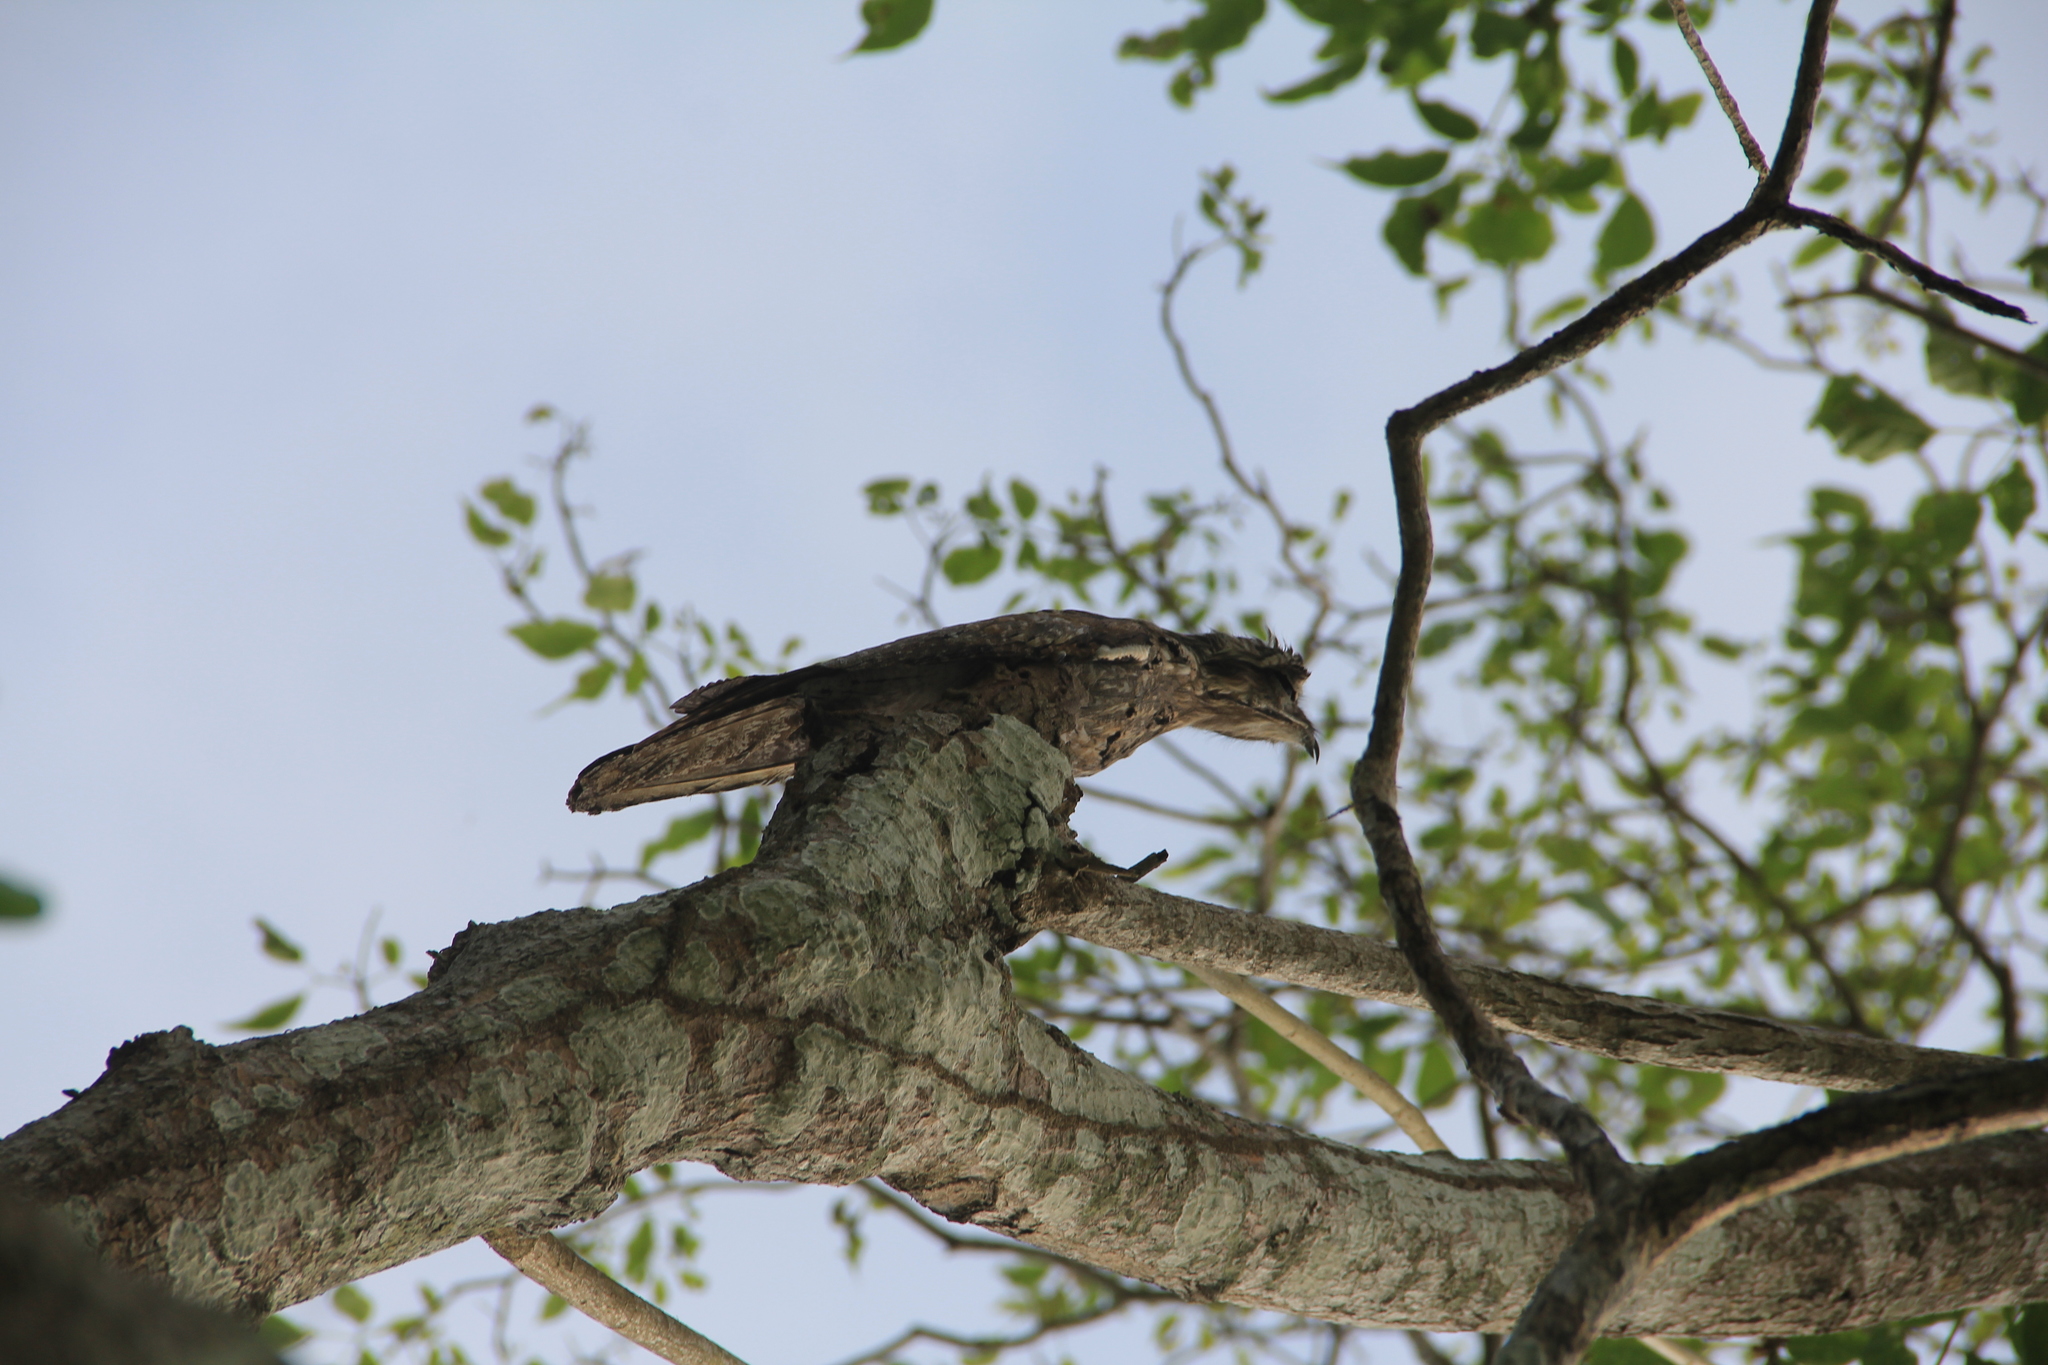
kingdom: Animalia
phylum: Chordata
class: Aves
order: Nyctibiiformes
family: Nyctibiidae
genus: Nyctibius
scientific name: Nyctibius jamaicensis
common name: Northern potoo
